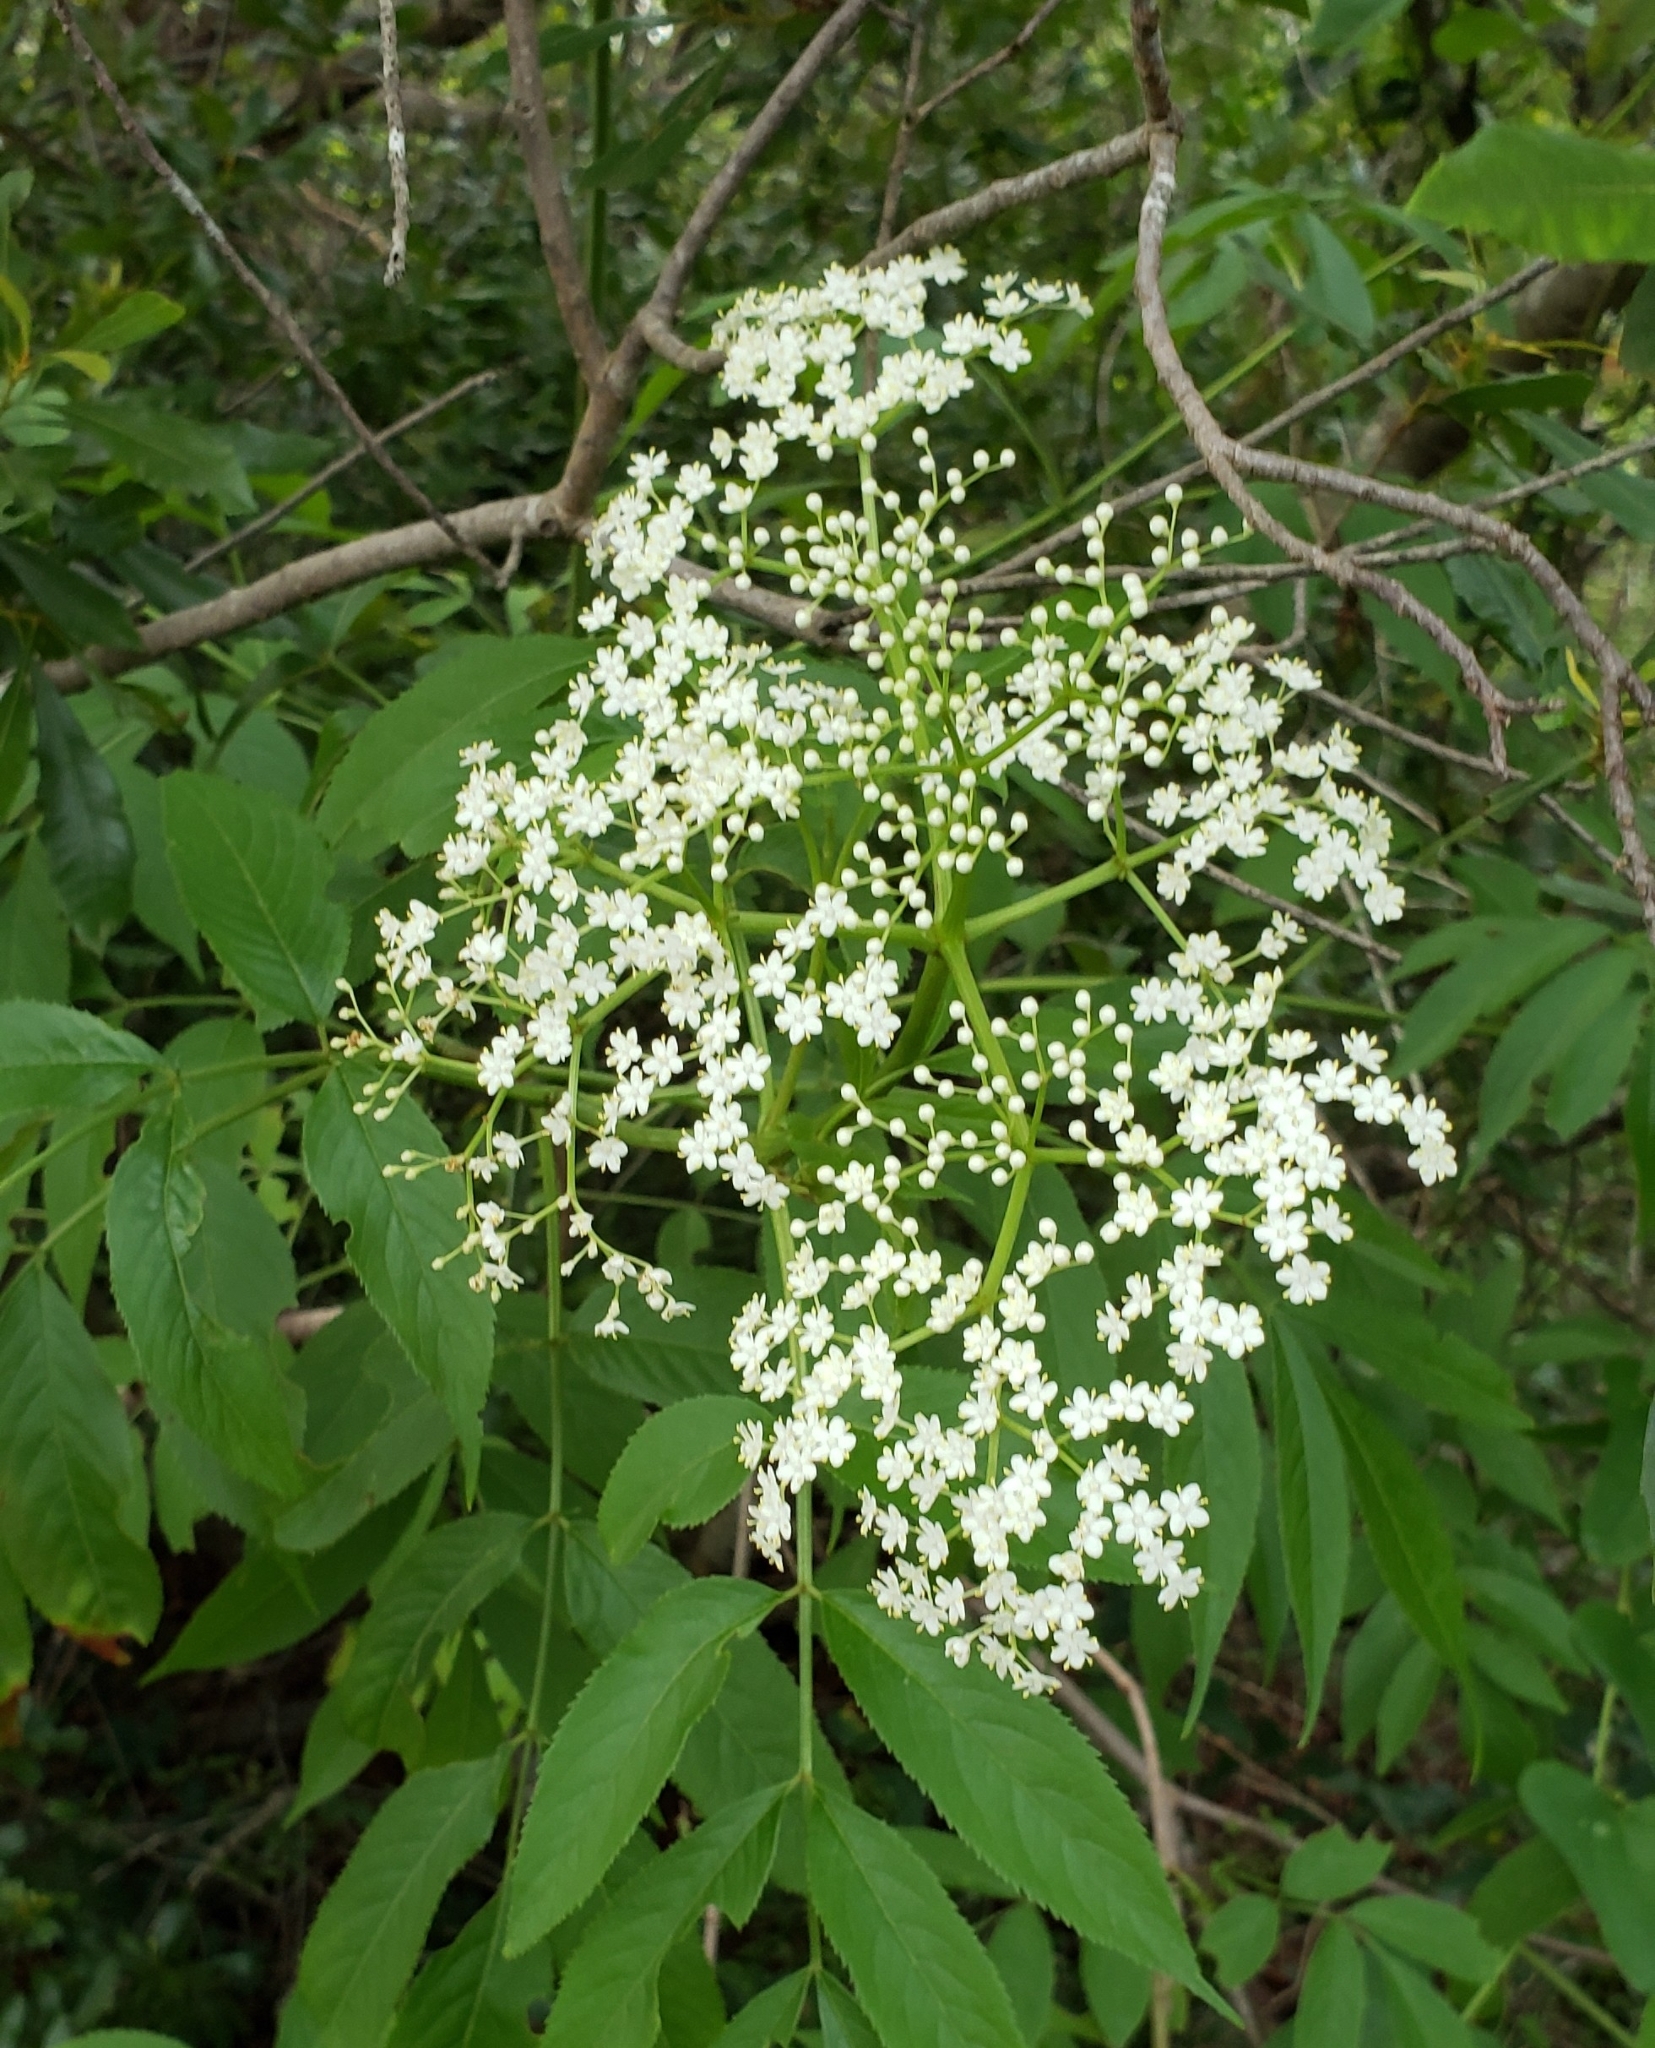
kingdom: Plantae
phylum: Tracheophyta
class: Magnoliopsida
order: Dipsacales
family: Viburnaceae
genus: Sambucus
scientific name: Sambucus canadensis
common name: American elder
